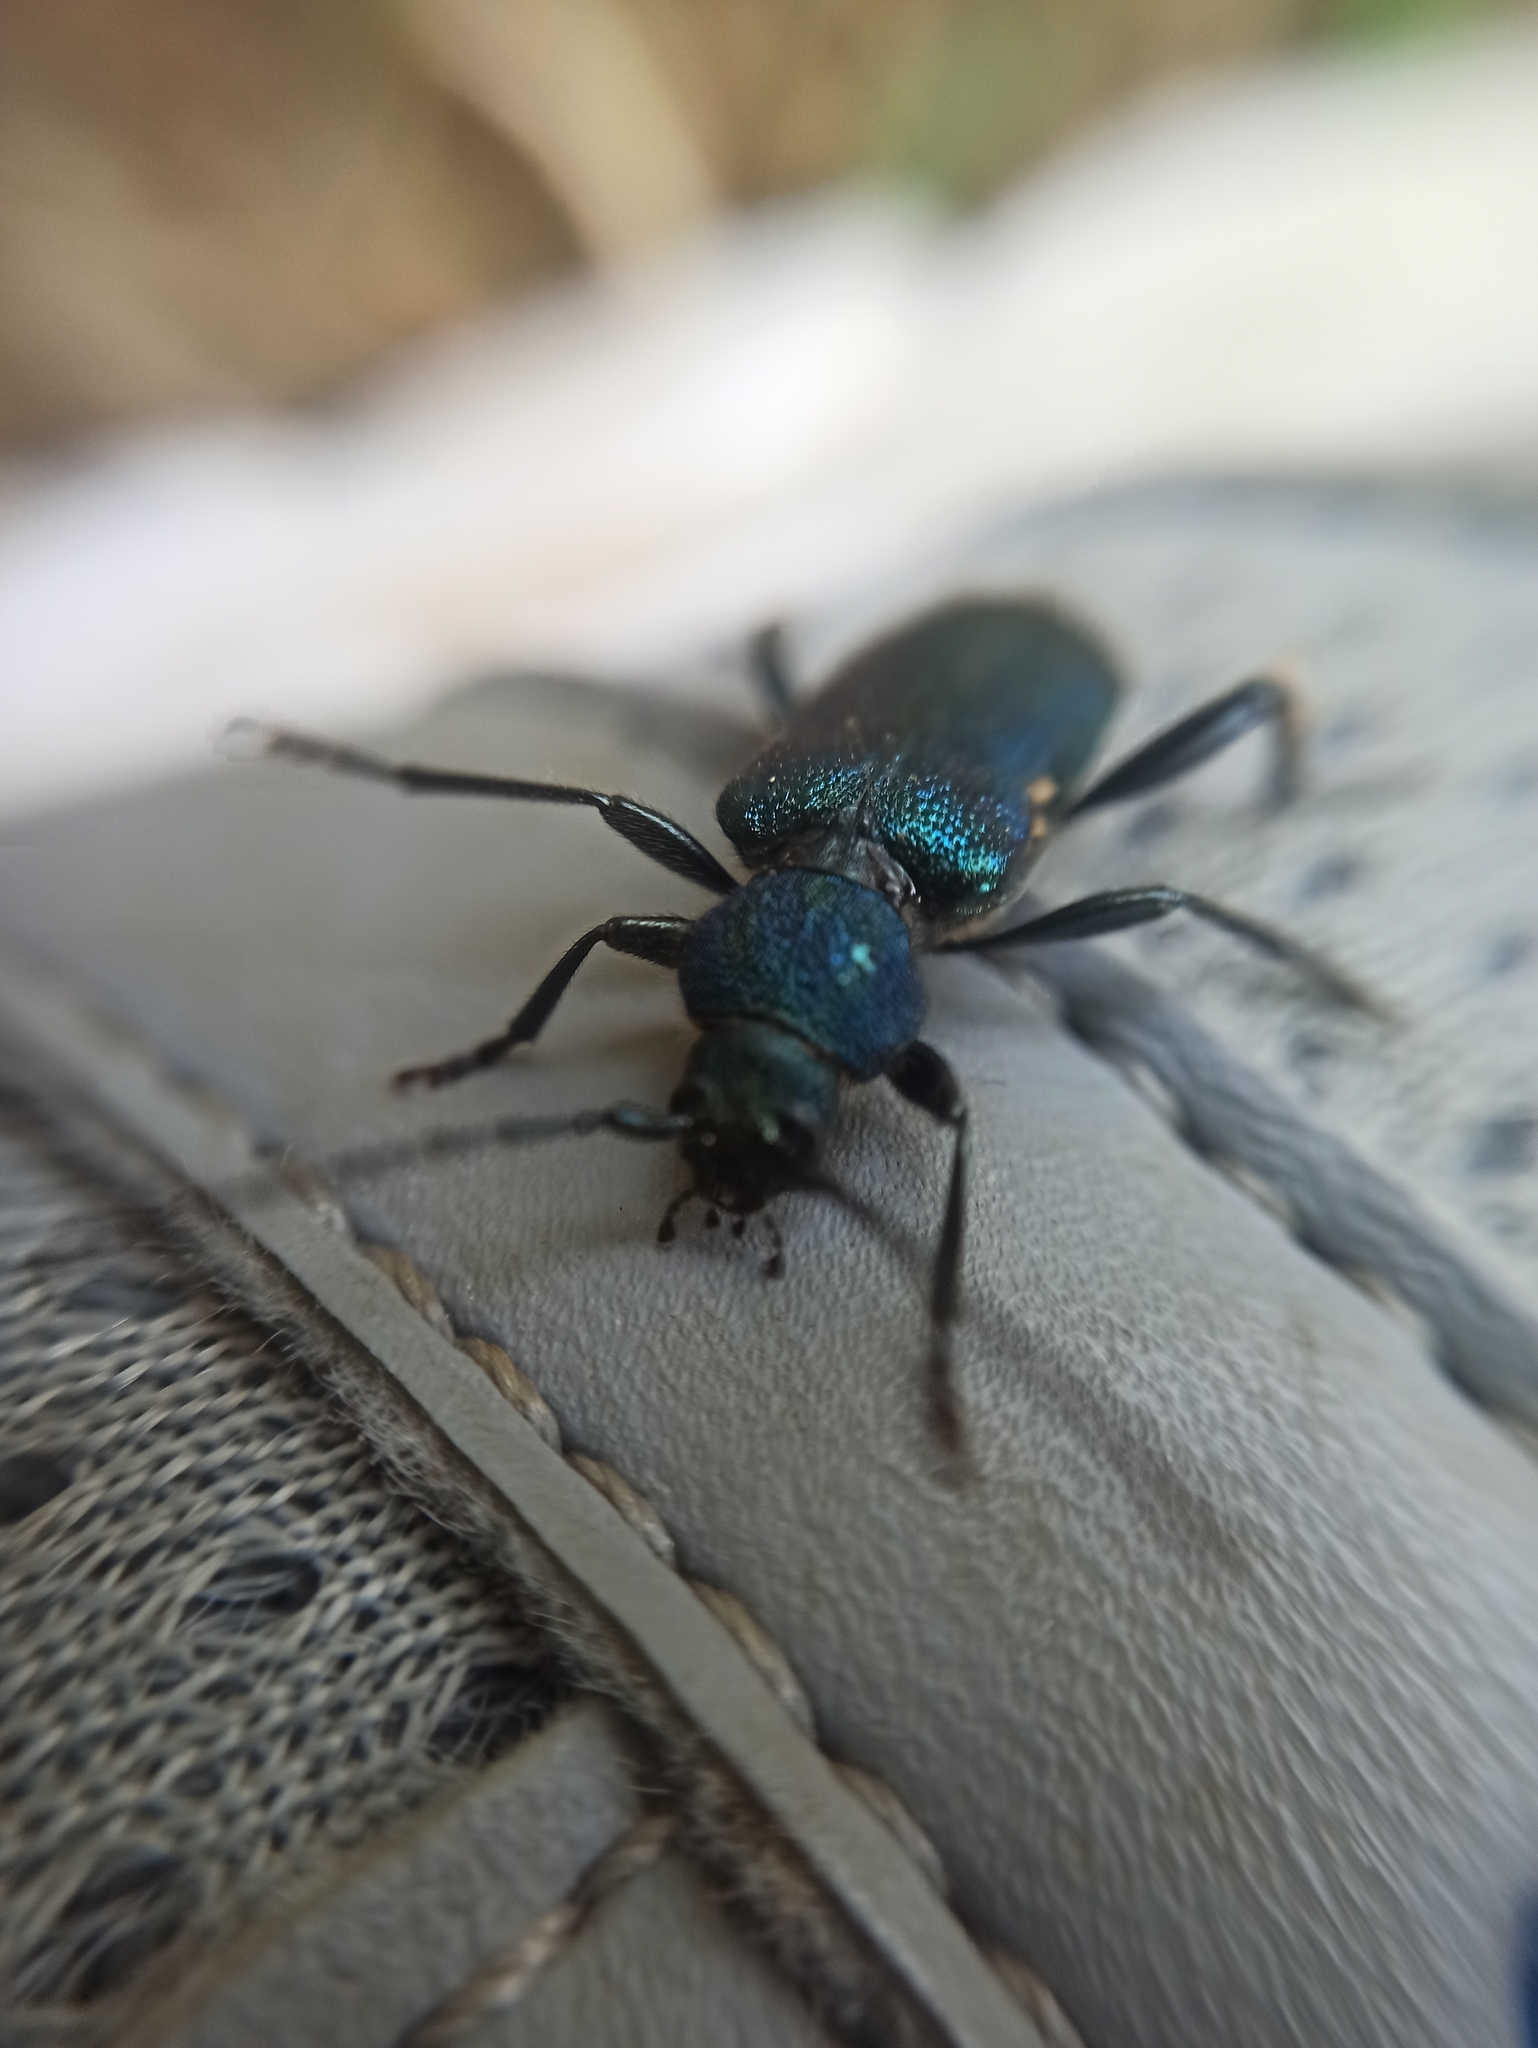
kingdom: Animalia
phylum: Arthropoda
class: Insecta
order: Coleoptera
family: Cerambycidae
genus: Callidium
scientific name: Callidium violaceum
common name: Violet tanbark beetle
